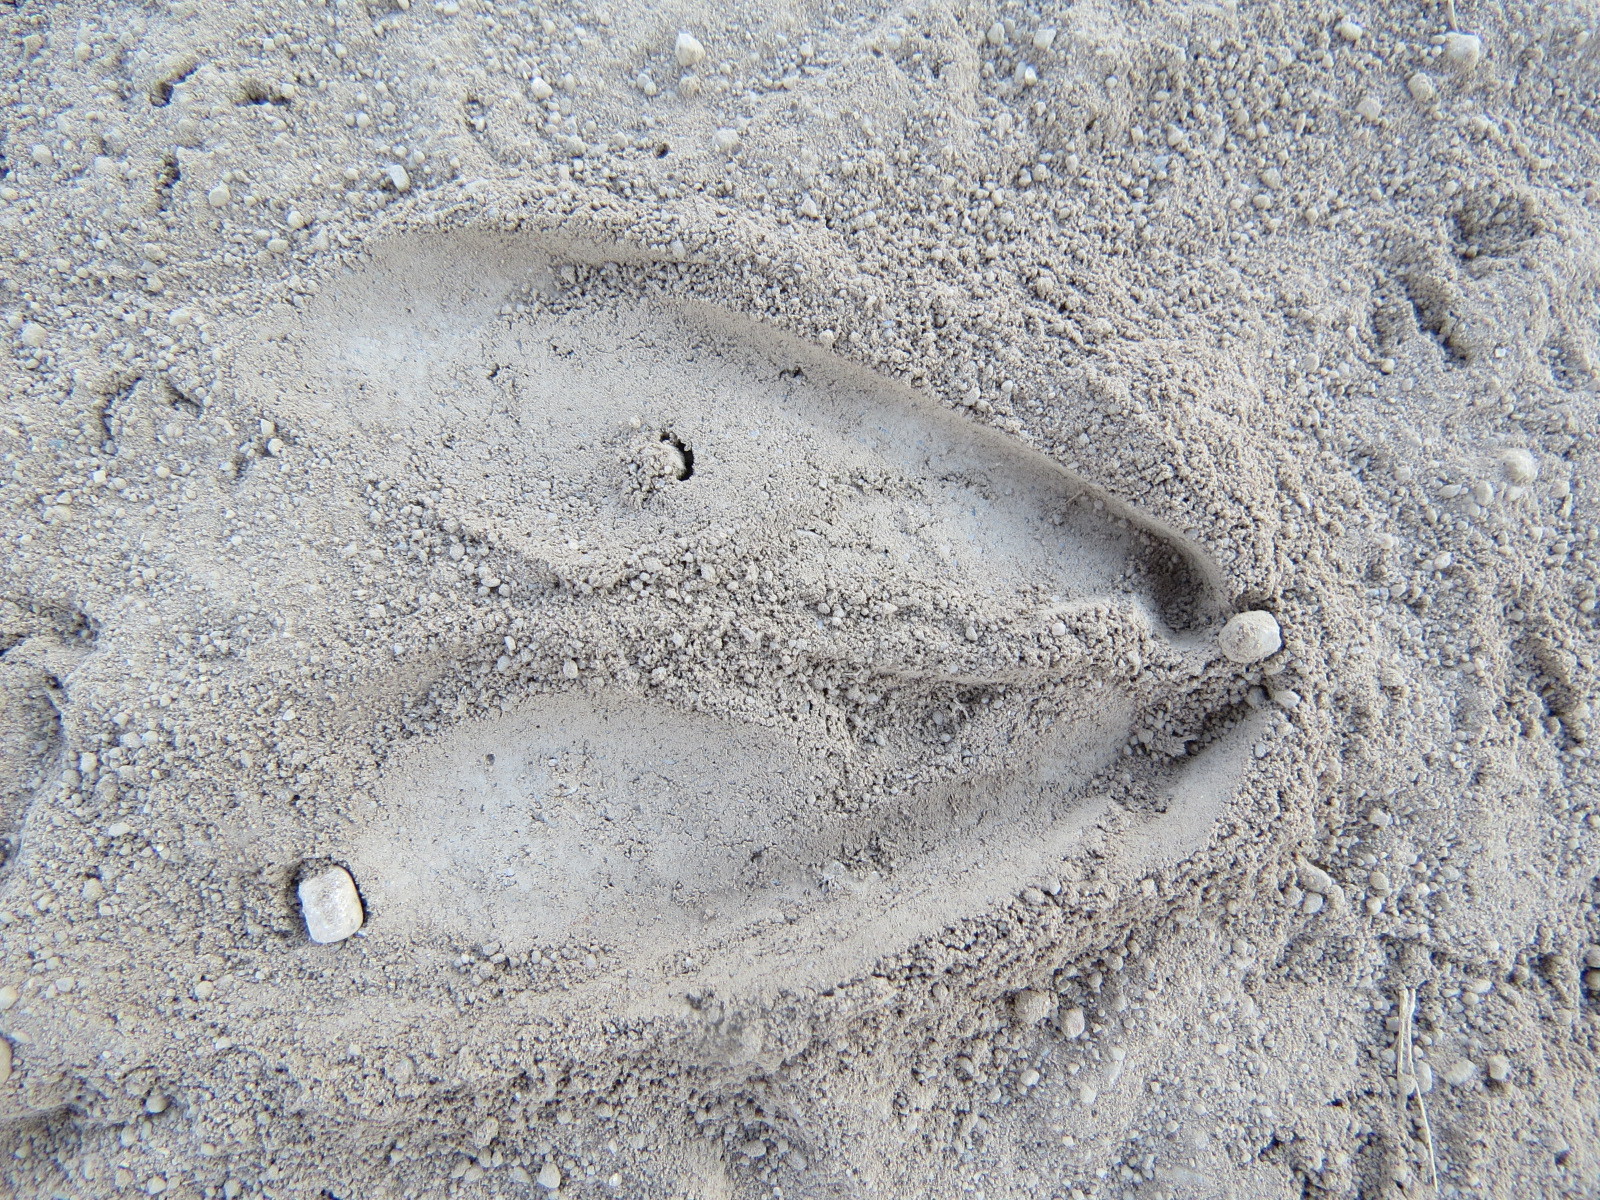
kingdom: Animalia
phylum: Chordata
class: Mammalia
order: Artiodactyla
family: Cervidae
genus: Odocoileus
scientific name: Odocoileus hemionus
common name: Mule deer
